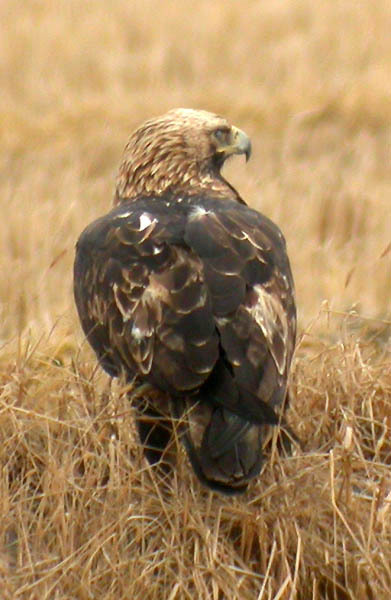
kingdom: Animalia
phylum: Chordata
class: Aves
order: Accipitriformes
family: Accipitridae
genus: Aquila
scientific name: Aquila heliaca
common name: Eastern imperial eagle
